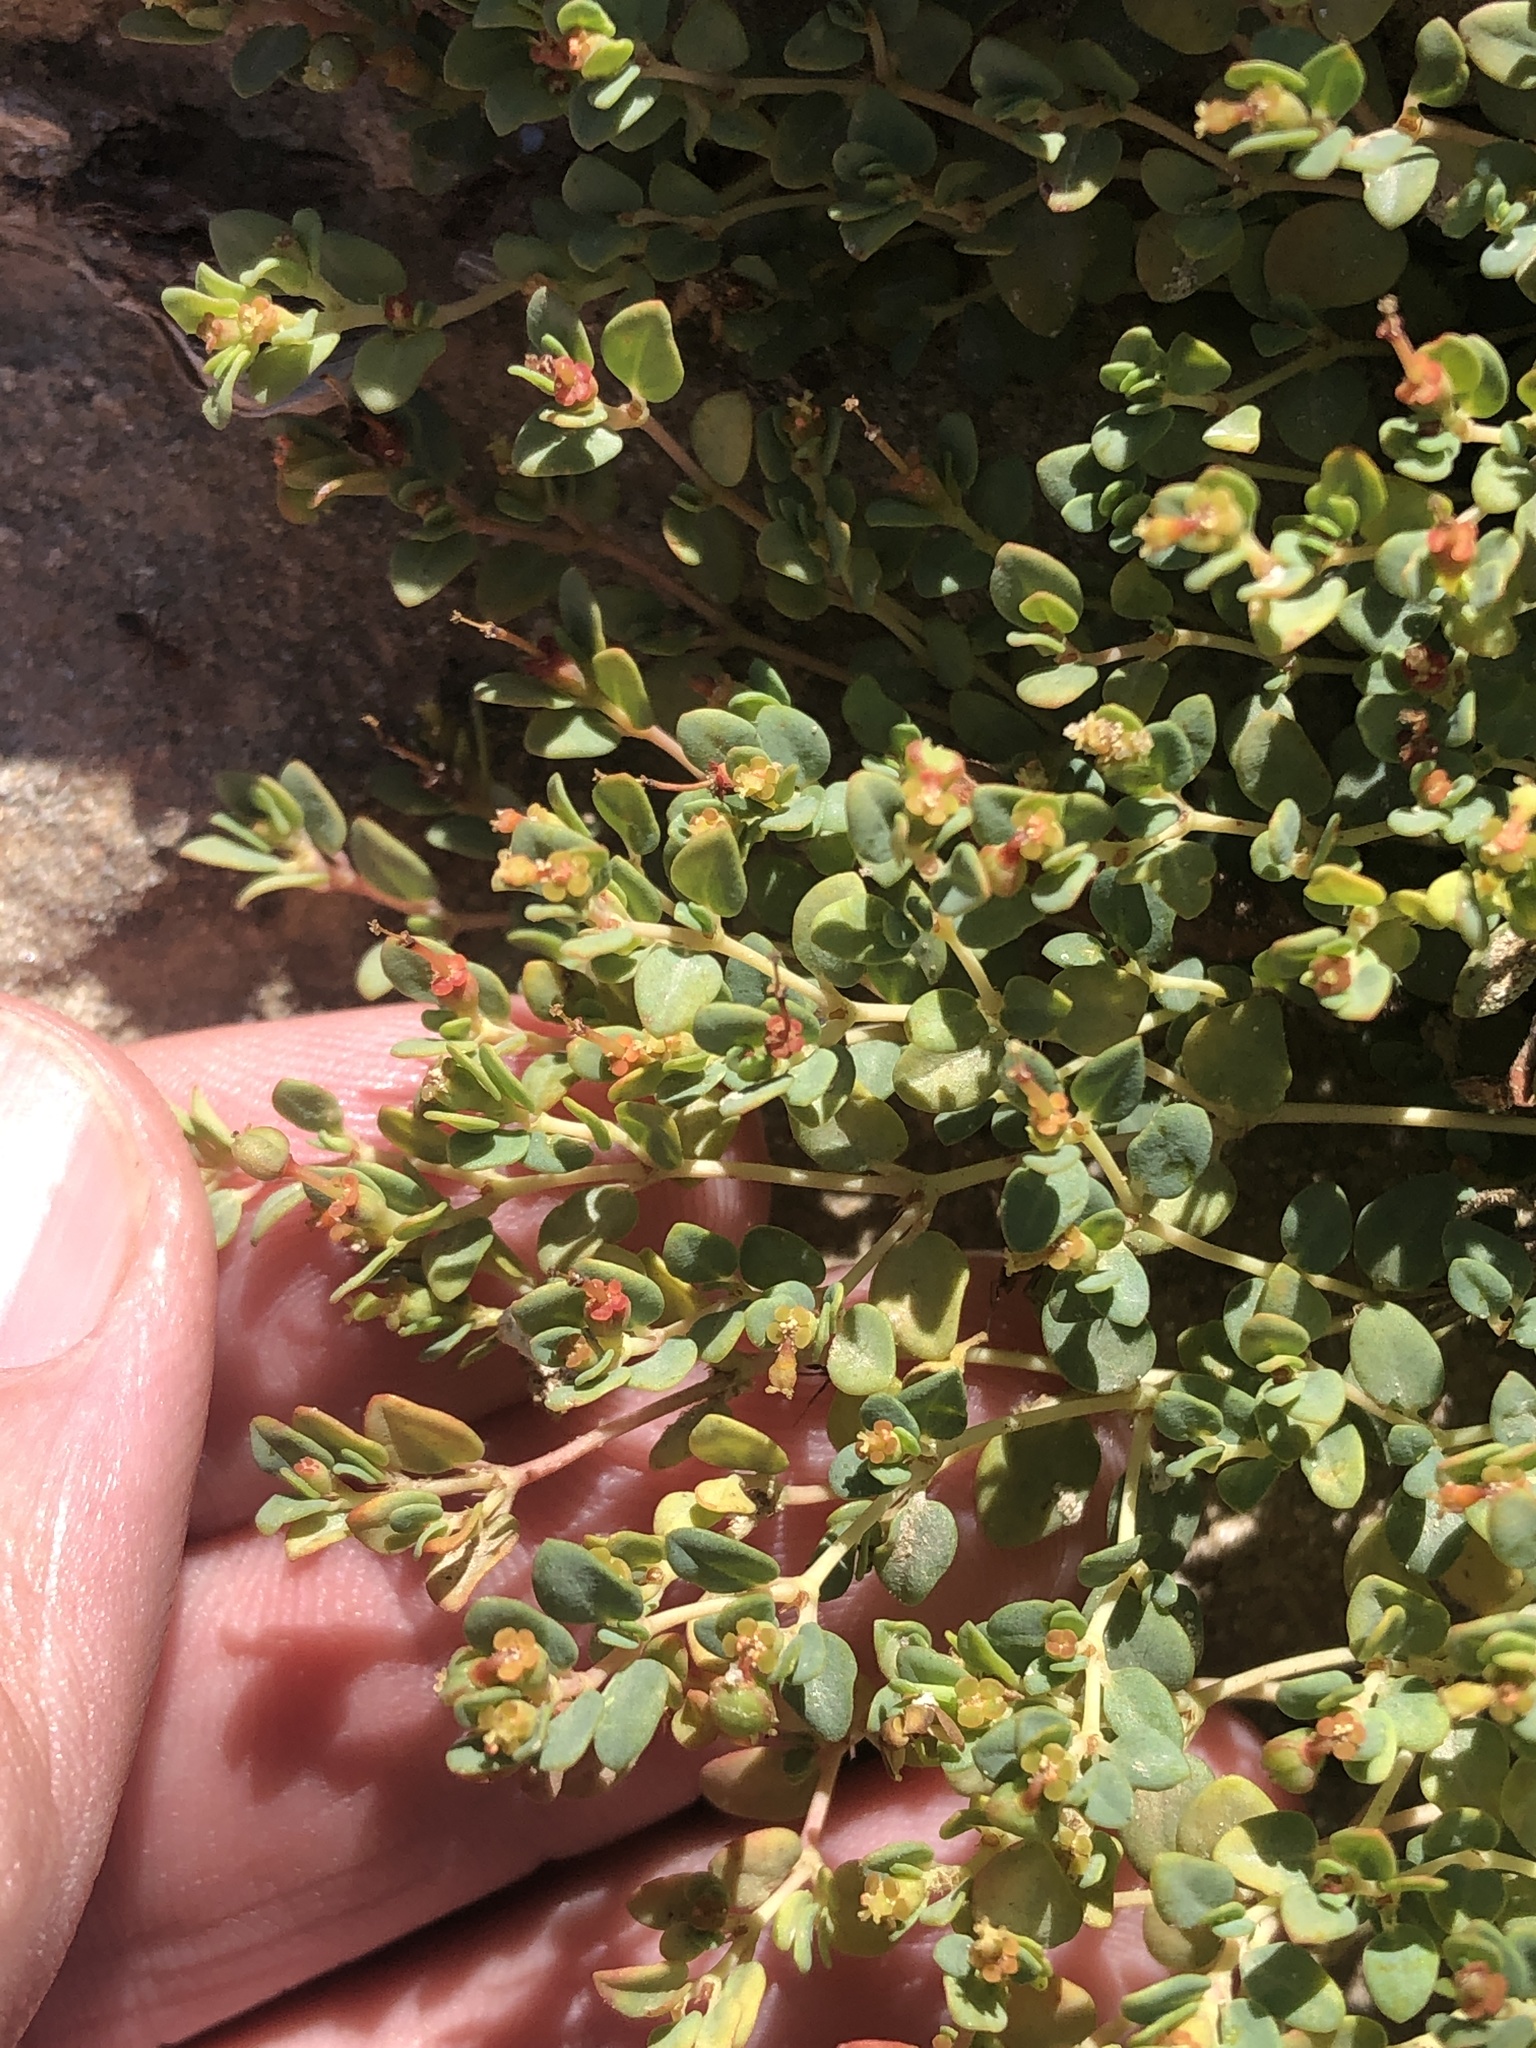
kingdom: Plantae
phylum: Tracheophyta
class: Magnoliopsida
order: Malpighiales
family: Euphorbiaceae
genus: Euphorbia
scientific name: Euphorbia fendleri
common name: Fendler's euphorbia
